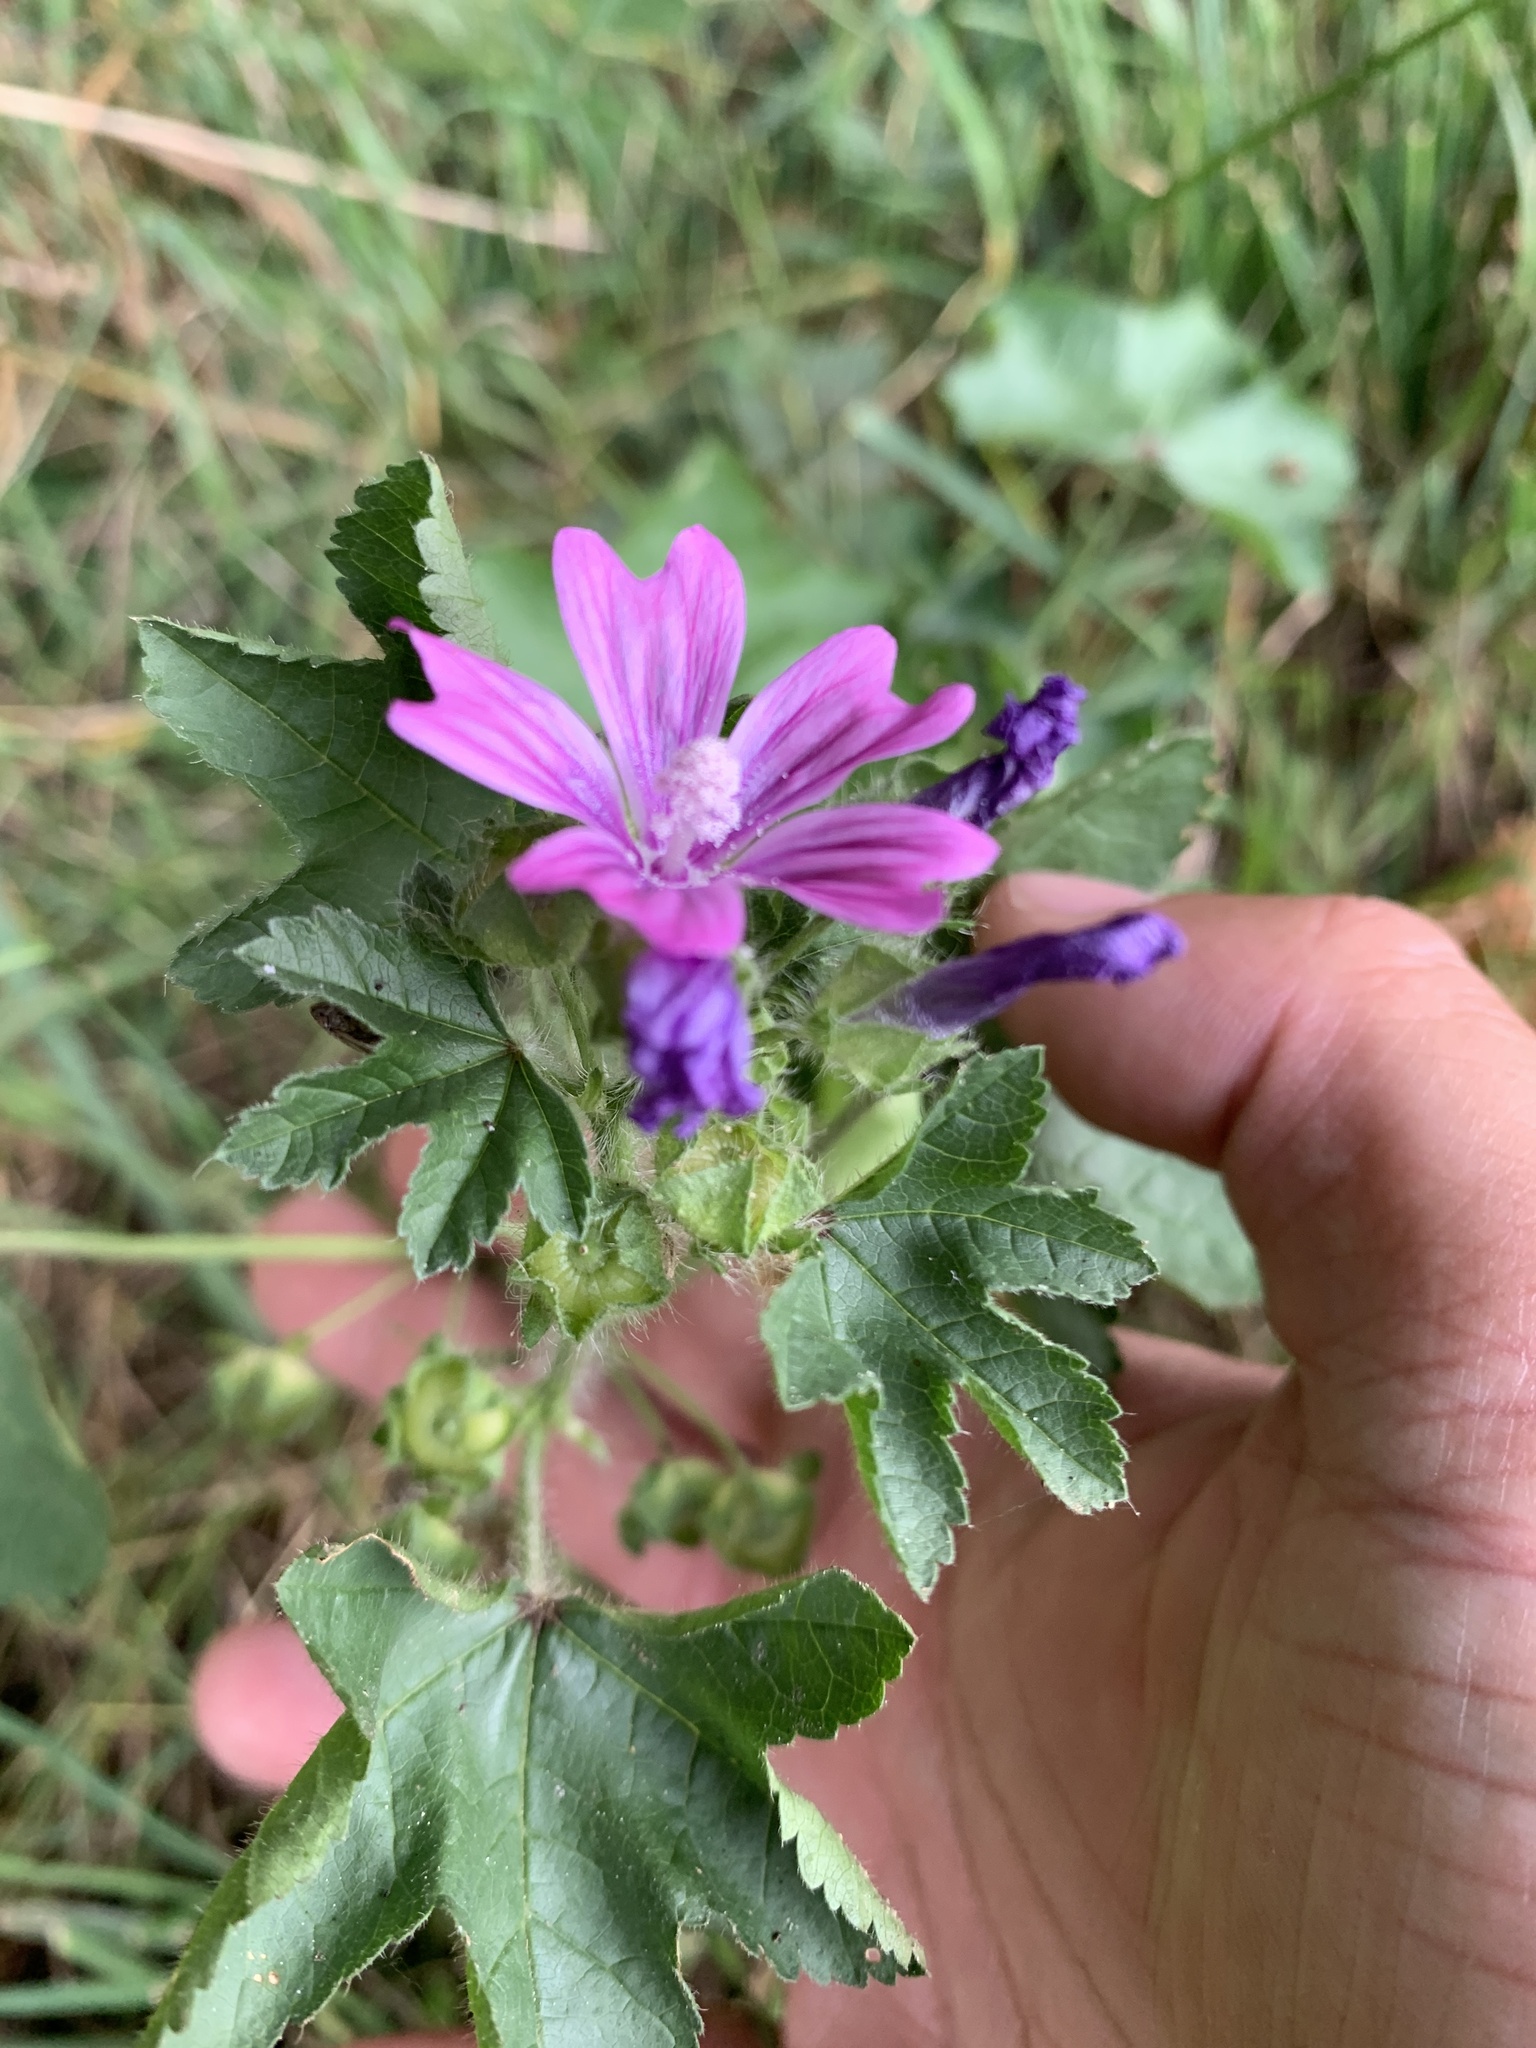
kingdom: Plantae
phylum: Tracheophyta
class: Magnoliopsida
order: Malvales
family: Malvaceae
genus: Malva
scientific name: Malva sylvestris
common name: Common mallow
